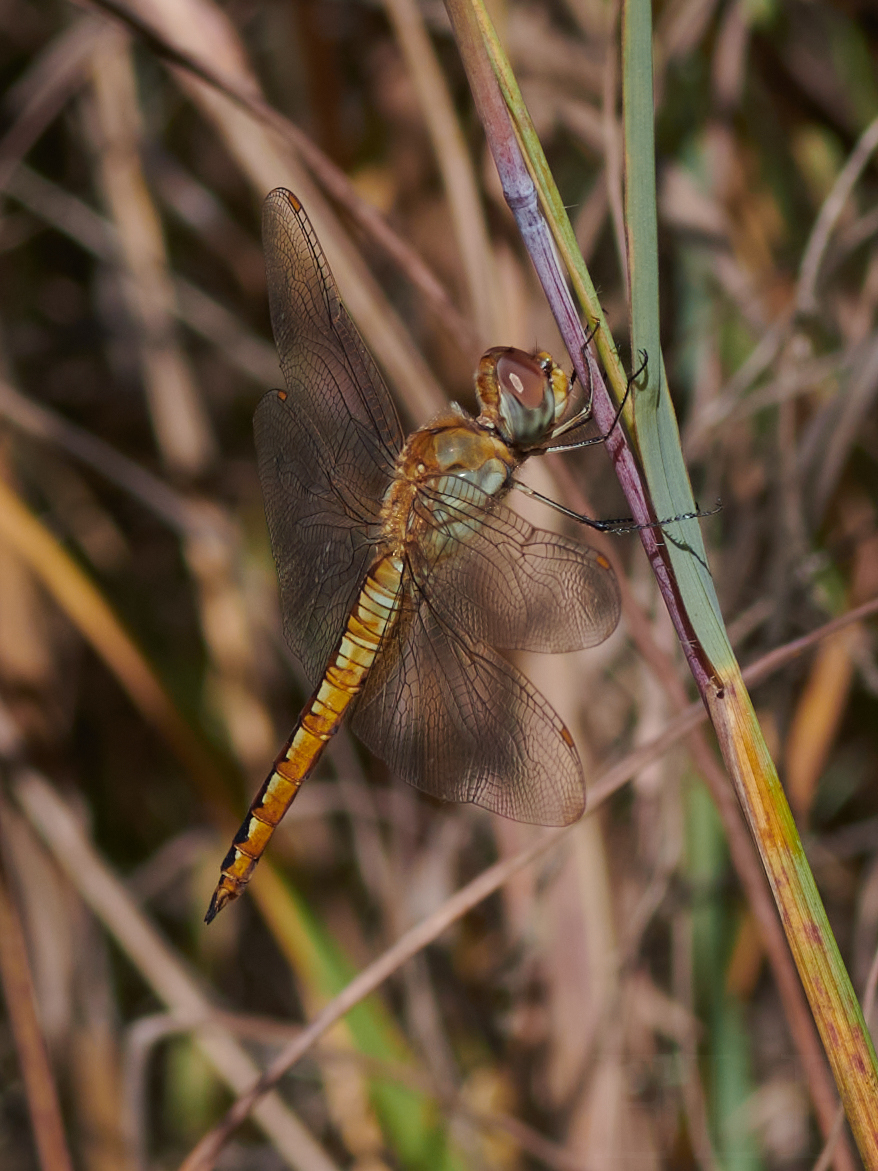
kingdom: Animalia
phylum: Arthropoda
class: Insecta
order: Odonata
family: Libellulidae
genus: Pantala
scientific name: Pantala flavescens
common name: Wandering glider
